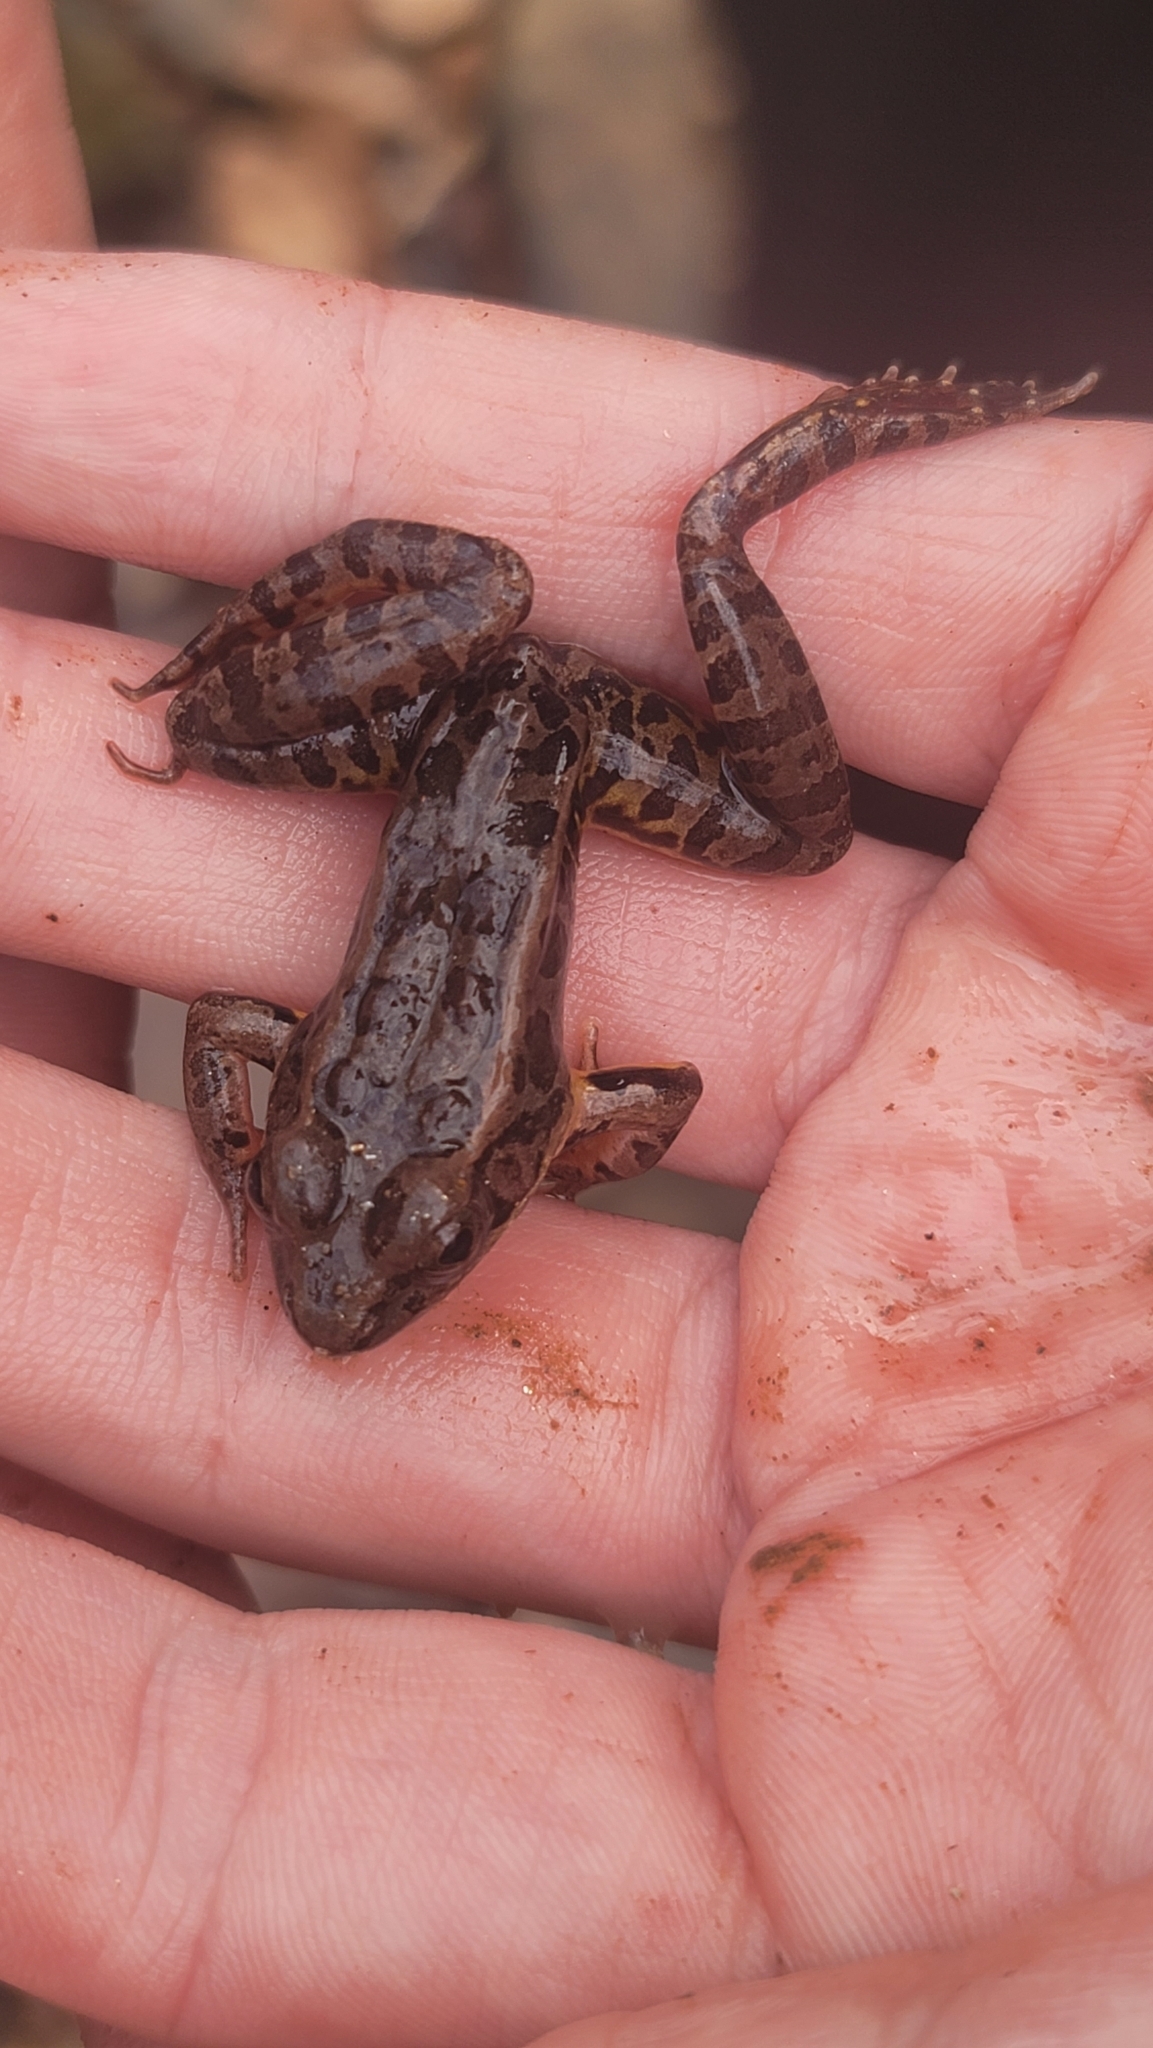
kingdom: Animalia
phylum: Chordata
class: Amphibia
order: Anura
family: Ranidae
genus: Lithobates
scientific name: Lithobates palustris
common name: Pickerel frog
